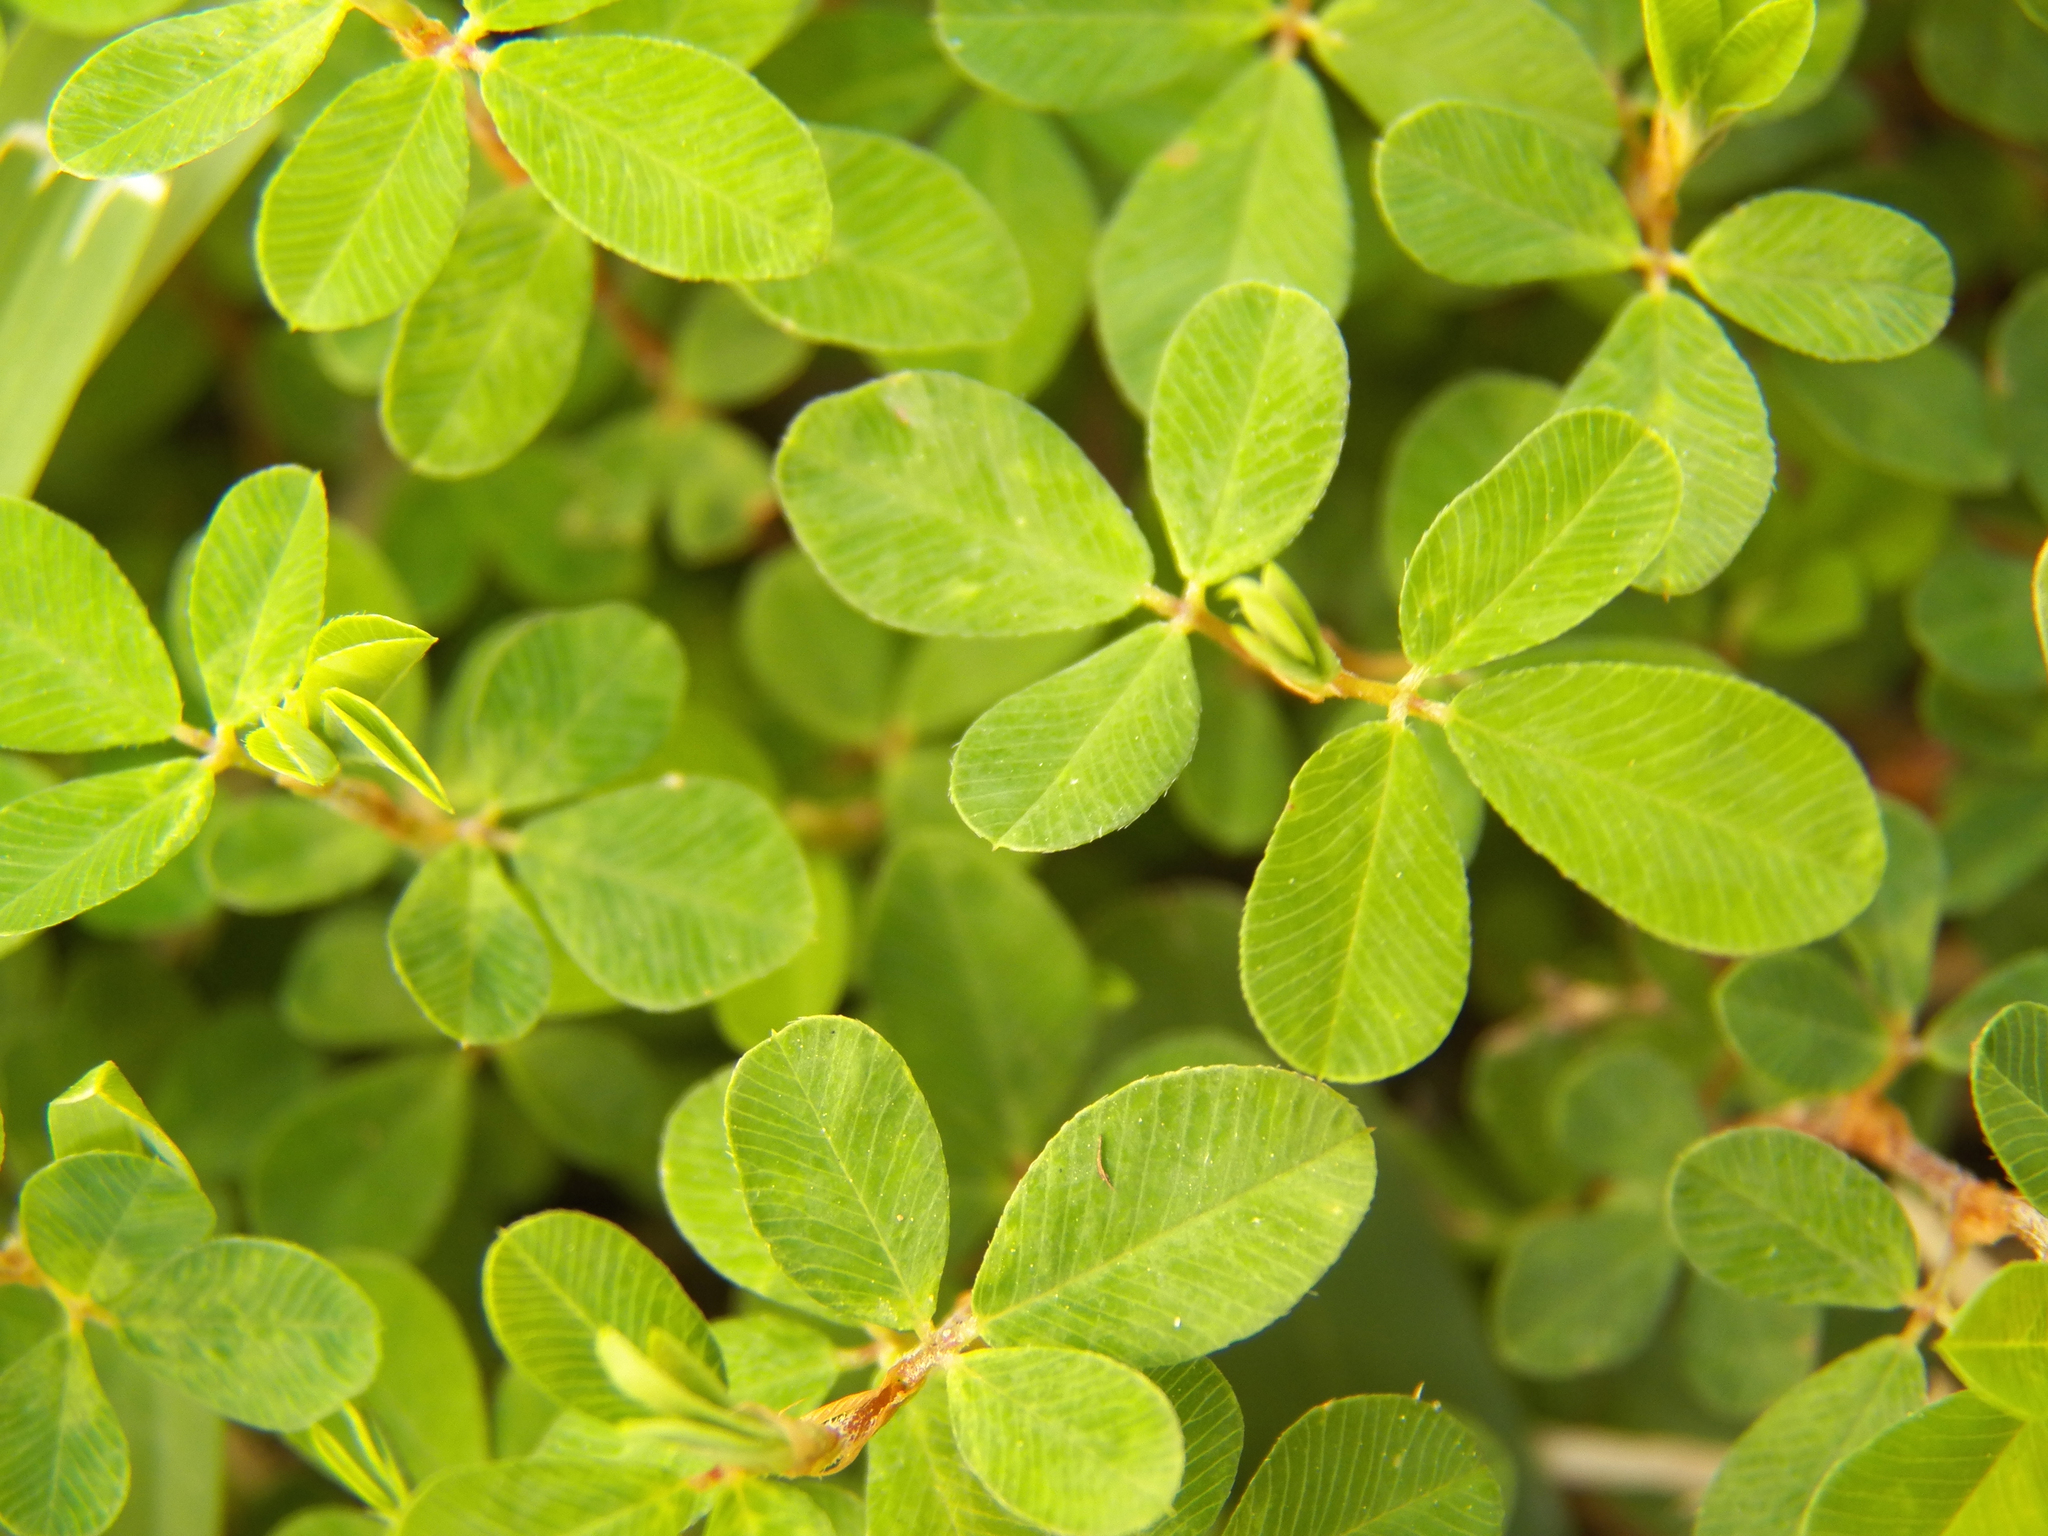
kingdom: Plantae
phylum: Tracheophyta
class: Magnoliopsida
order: Fabales
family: Fabaceae
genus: Kummerowia
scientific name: Kummerowia striata
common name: Japanese clover
